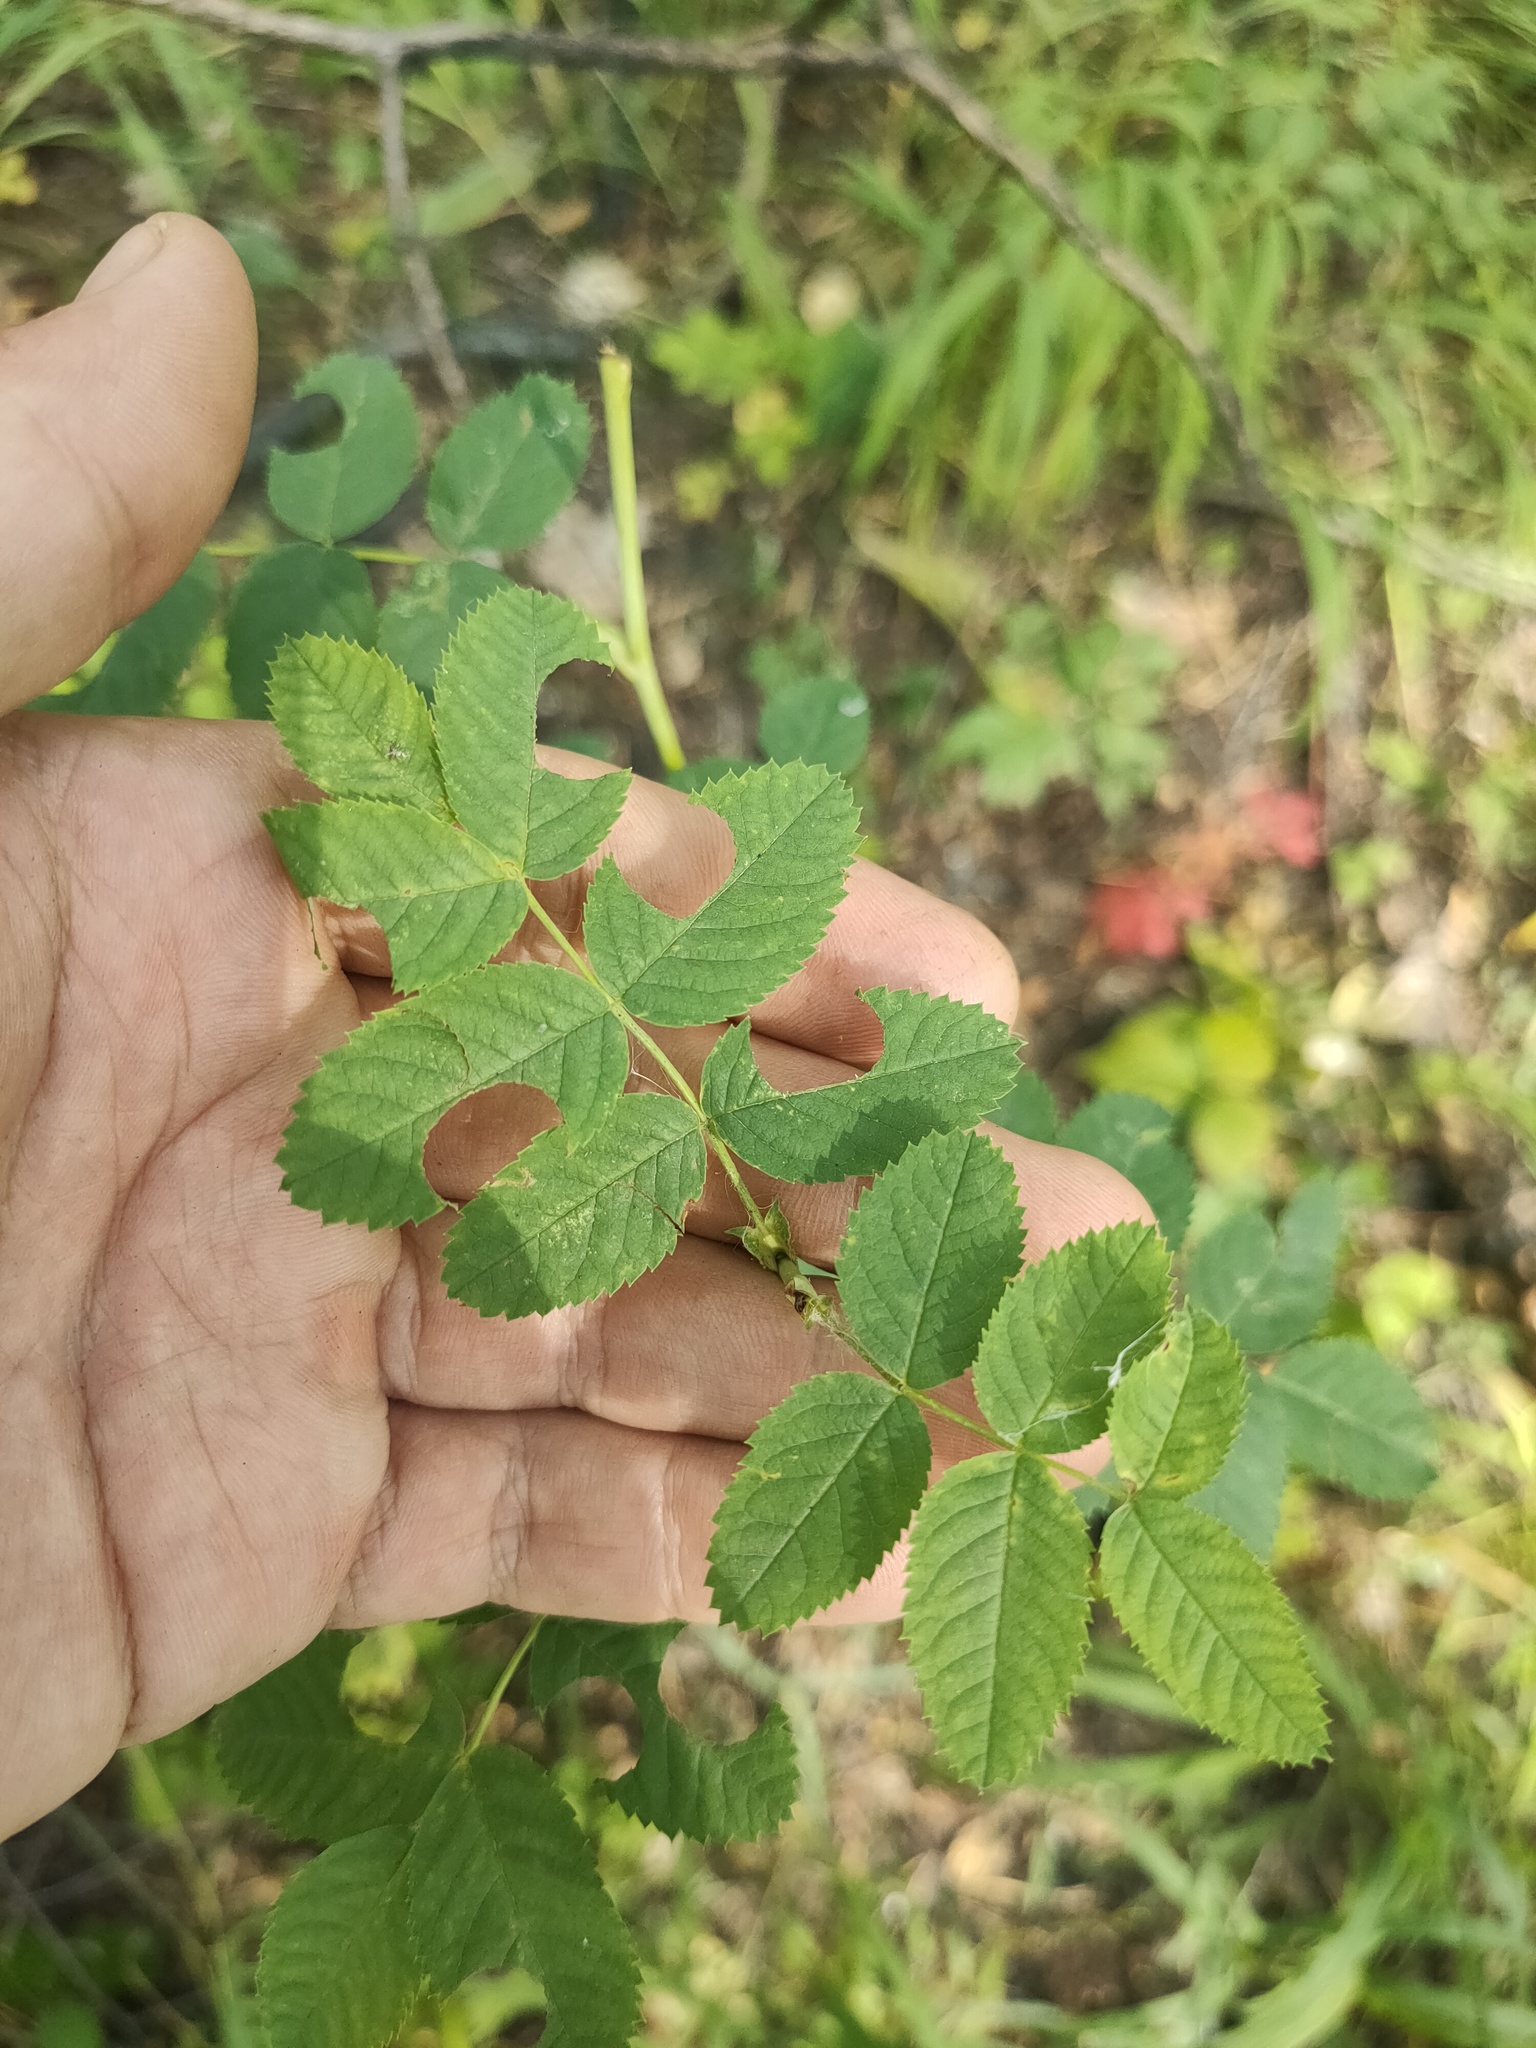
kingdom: Plantae
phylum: Tracheophyta
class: Magnoliopsida
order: Rosales
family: Rosaceae
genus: Rosa
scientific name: Rosa
